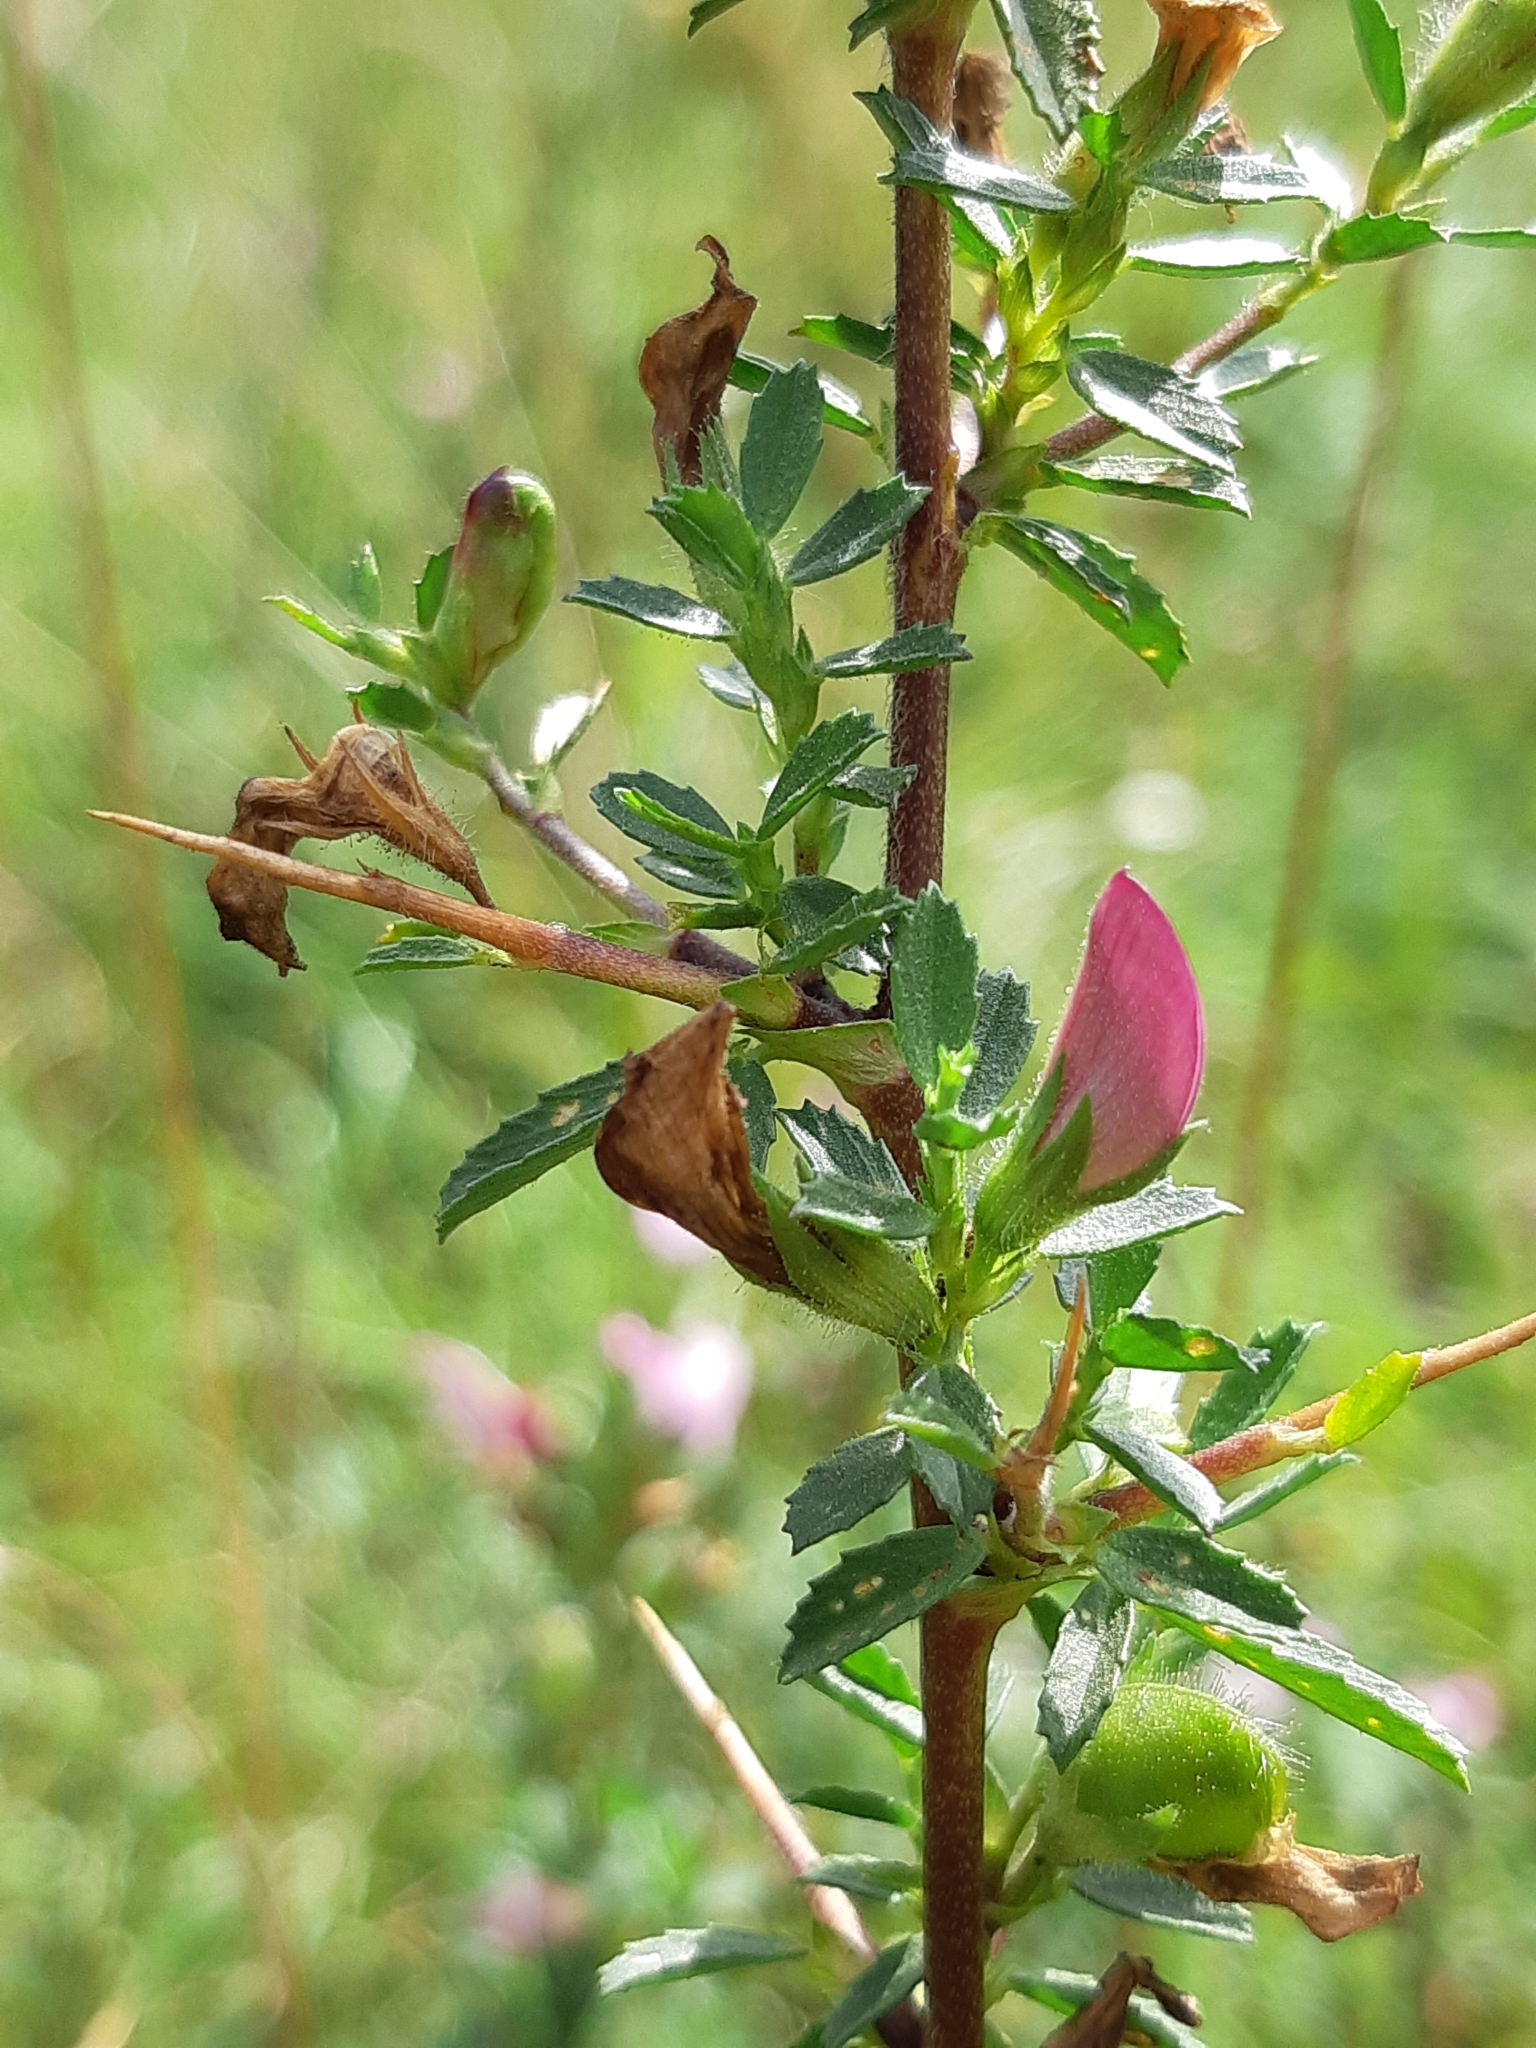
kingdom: Plantae
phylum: Tracheophyta
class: Magnoliopsida
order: Fabales
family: Fabaceae
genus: Ononis
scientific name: Ononis spinosa
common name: Spiny restharrow
